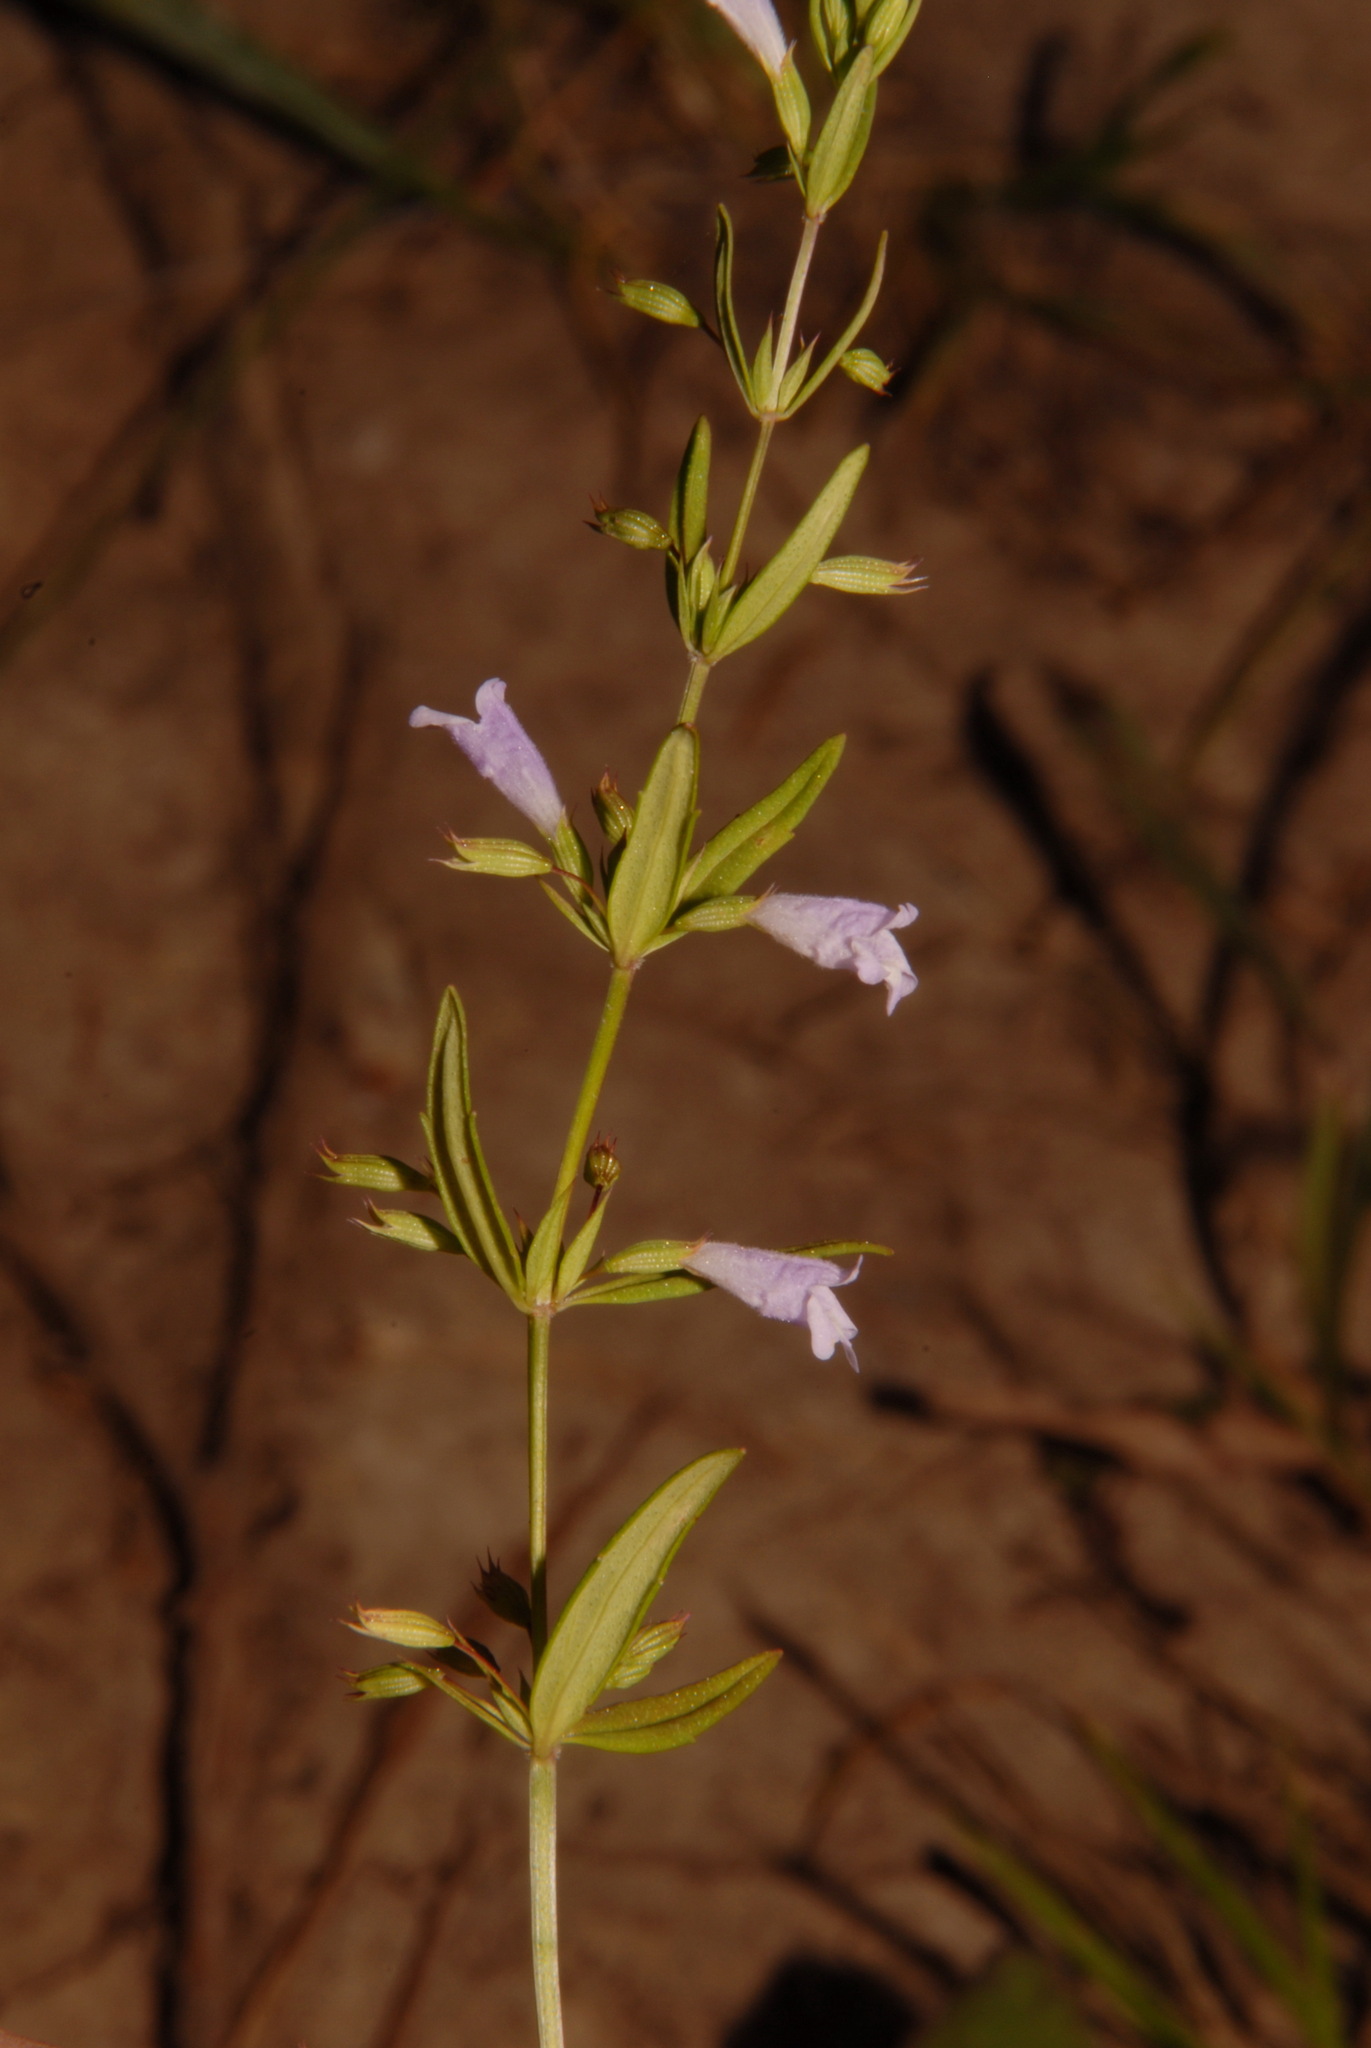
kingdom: Plantae
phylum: Tracheophyta
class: Magnoliopsida
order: Lamiales
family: Lamiaceae
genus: Clinopodium
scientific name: Clinopodium glabellum
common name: Ozark calamint
